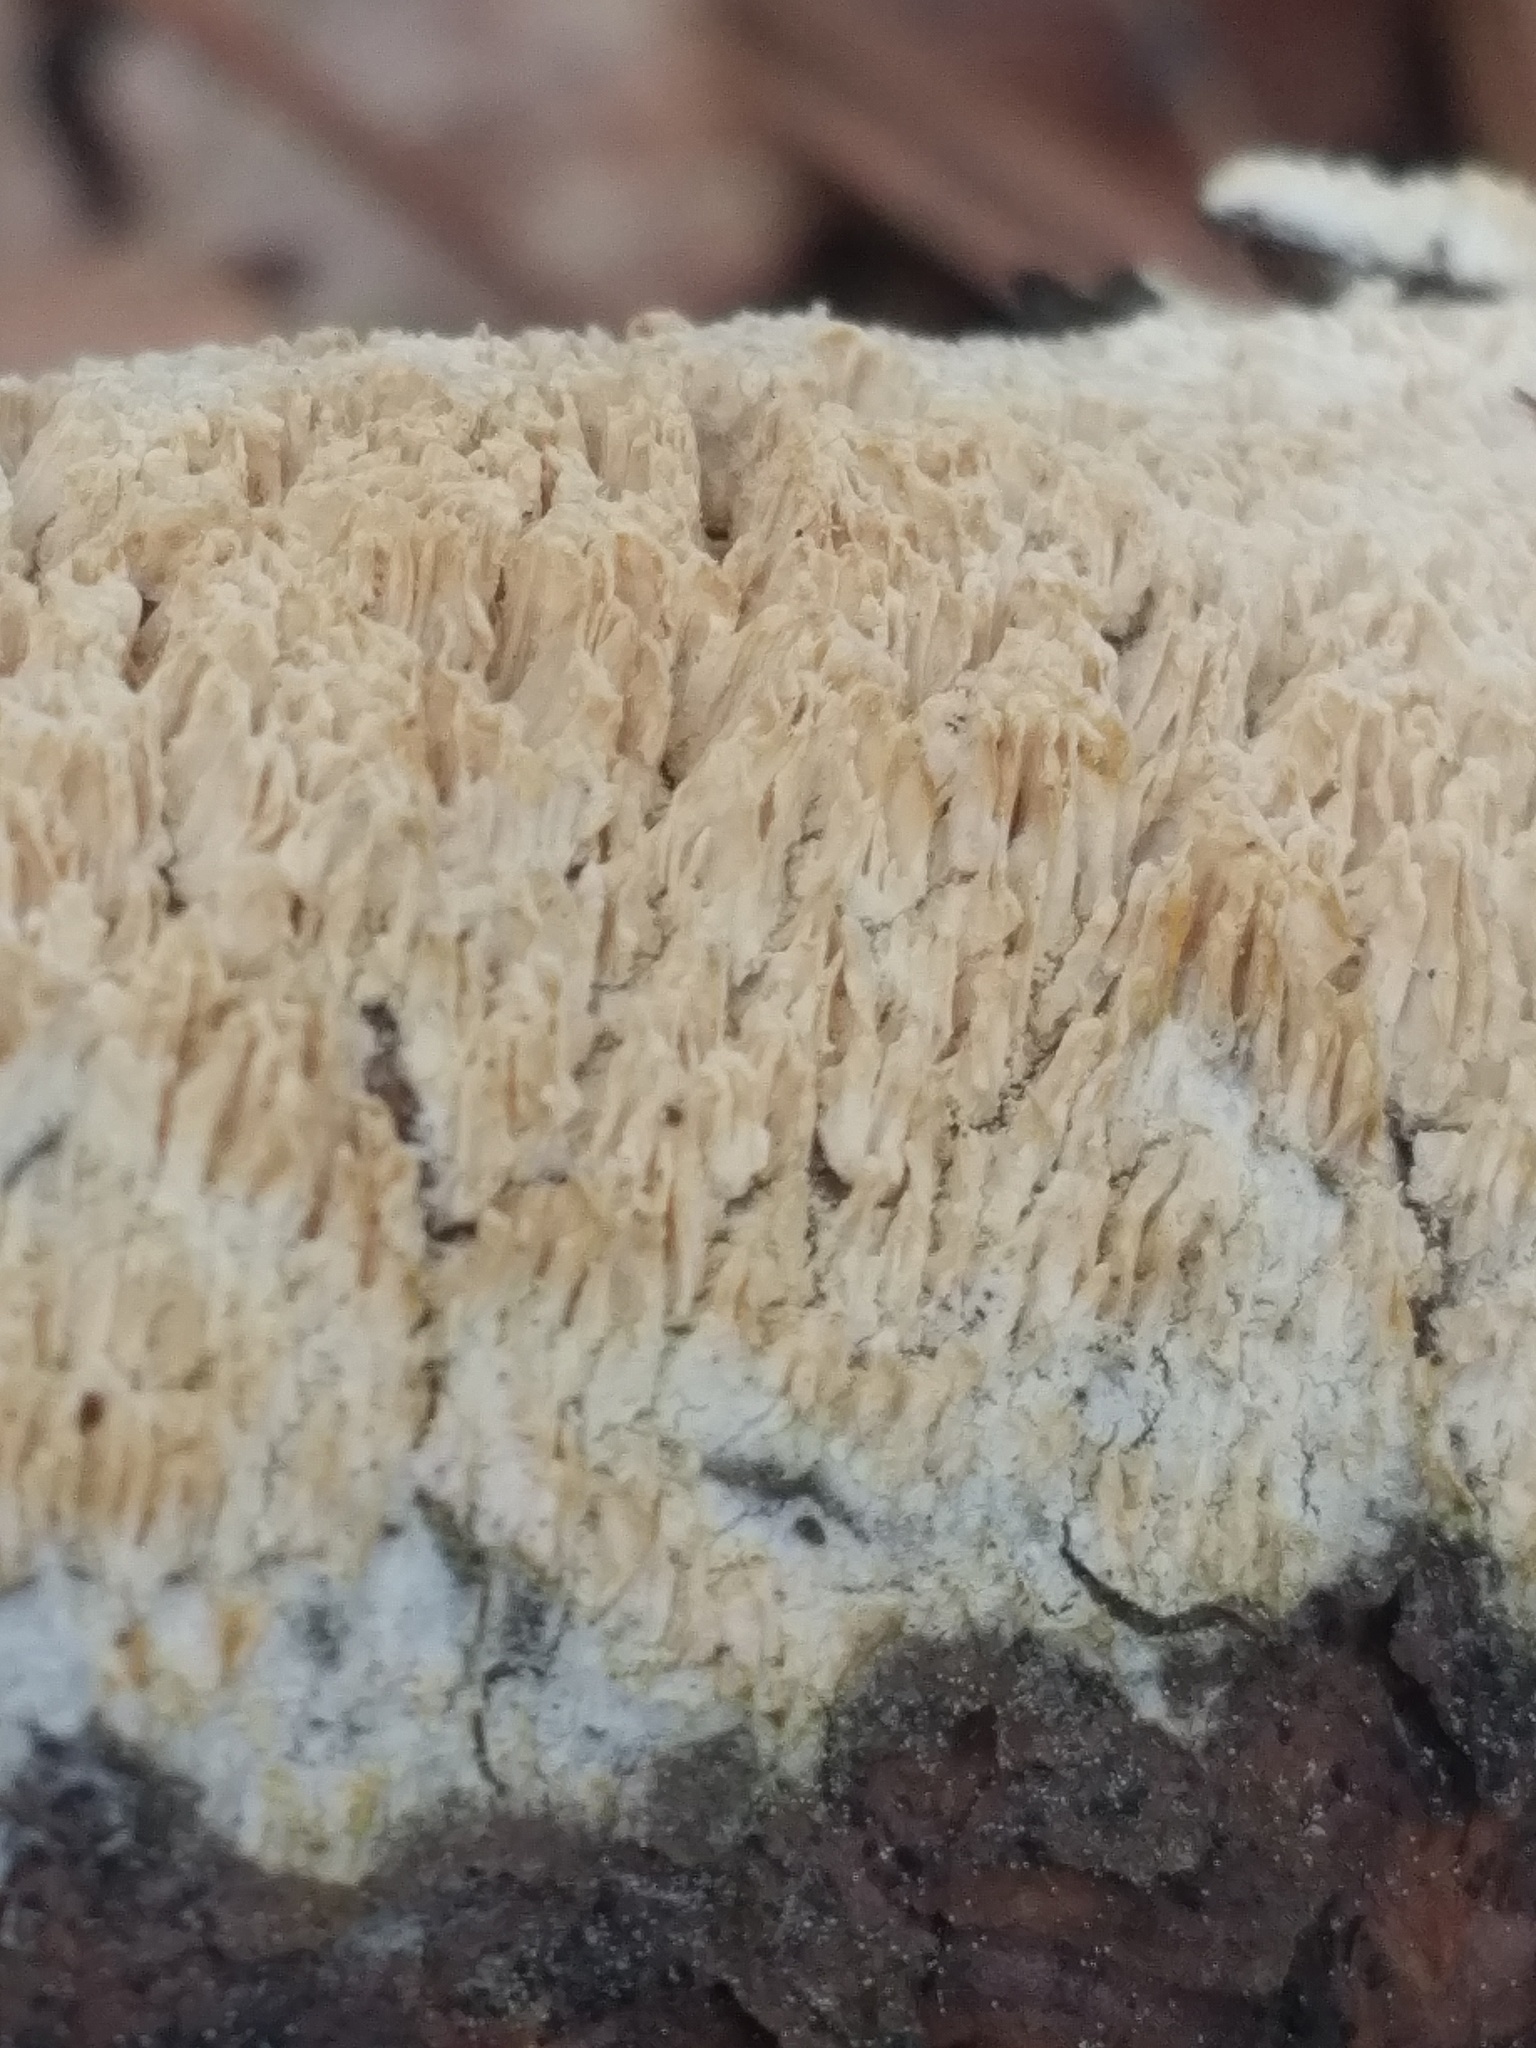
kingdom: Fungi
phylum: Basidiomycota
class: Agaricomycetes
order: Polyporales
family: Irpicaceae
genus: Irpex
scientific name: Irpex lacteus
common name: Milk-white toothed polypore
